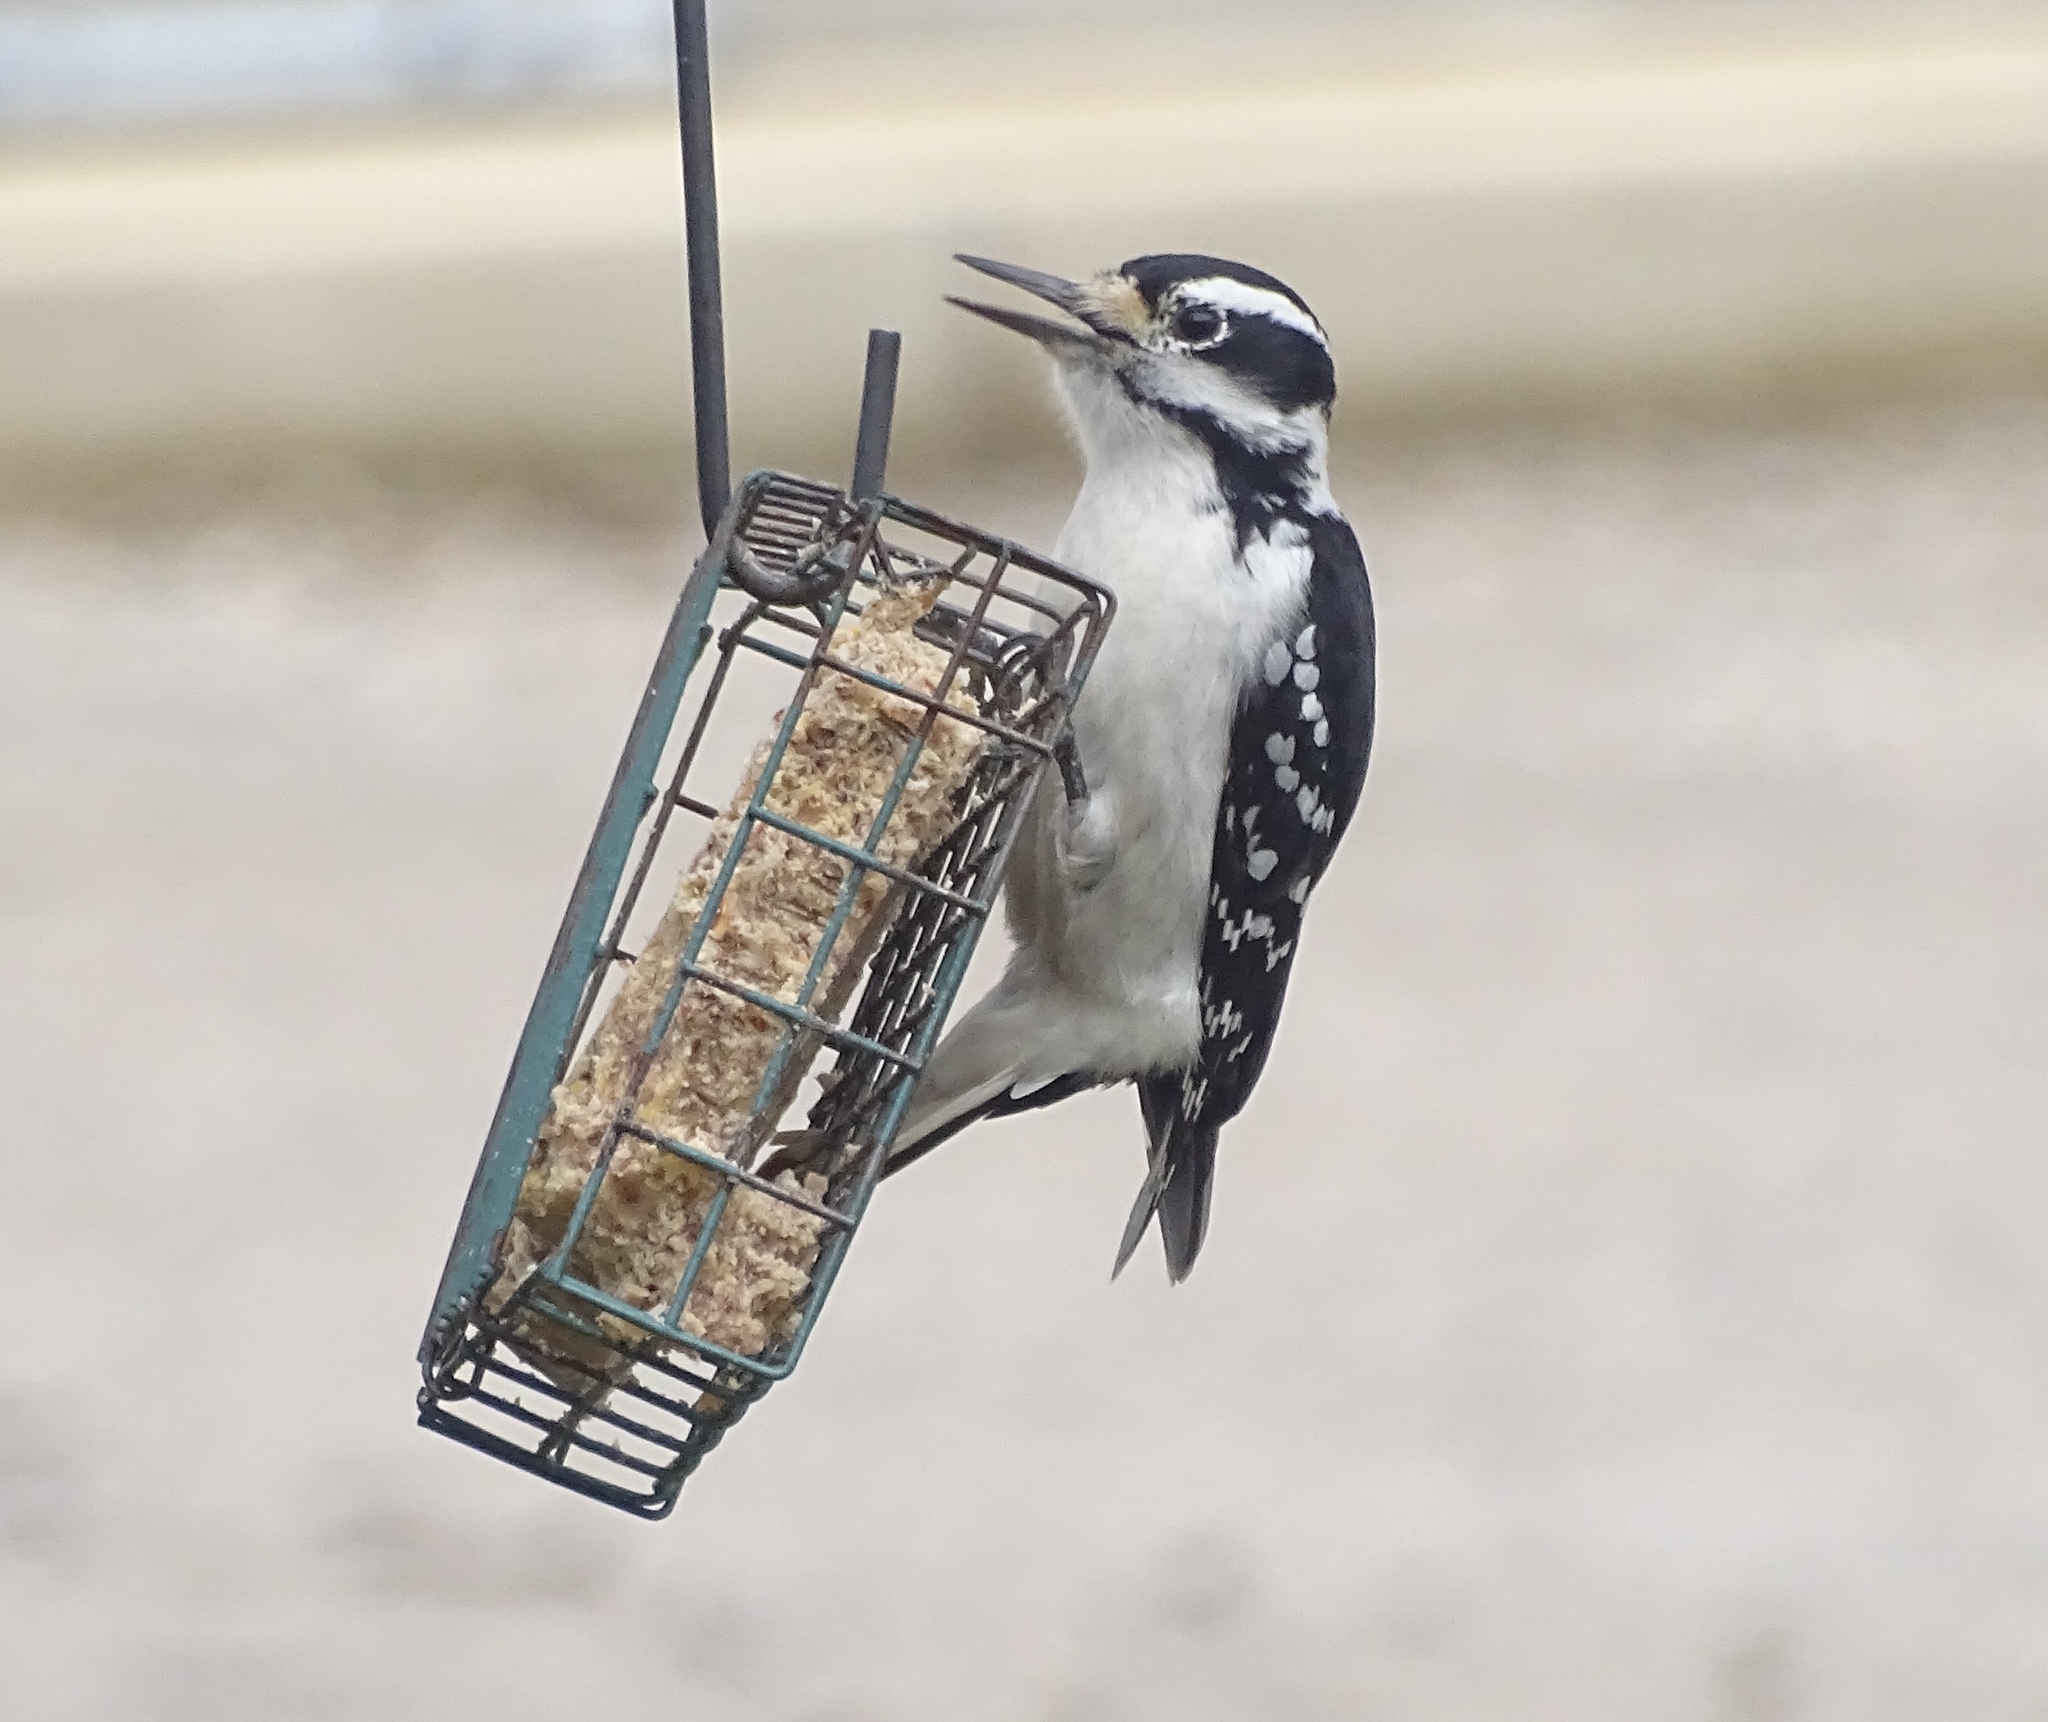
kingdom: Animalia
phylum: Chordata
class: Aves
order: Piciformes
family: Picidae
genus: Leuconotopicus
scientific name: Leuconotopicus villosus
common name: Hairy woodpecker
